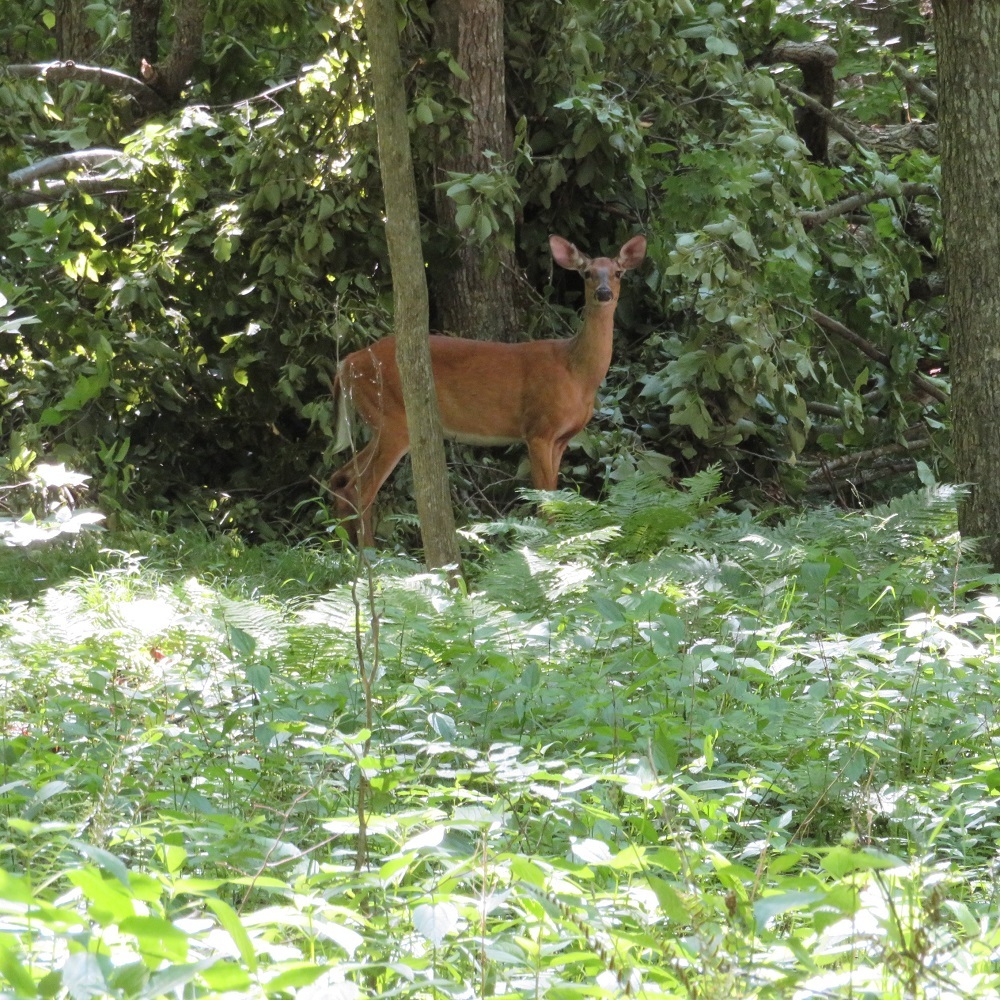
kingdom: Animalia
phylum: Chordata
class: Mammalia
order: Artiodactyla
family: Cervidae
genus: Odocoileus
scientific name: Odocoileus virginianus
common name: White-tailed deer
